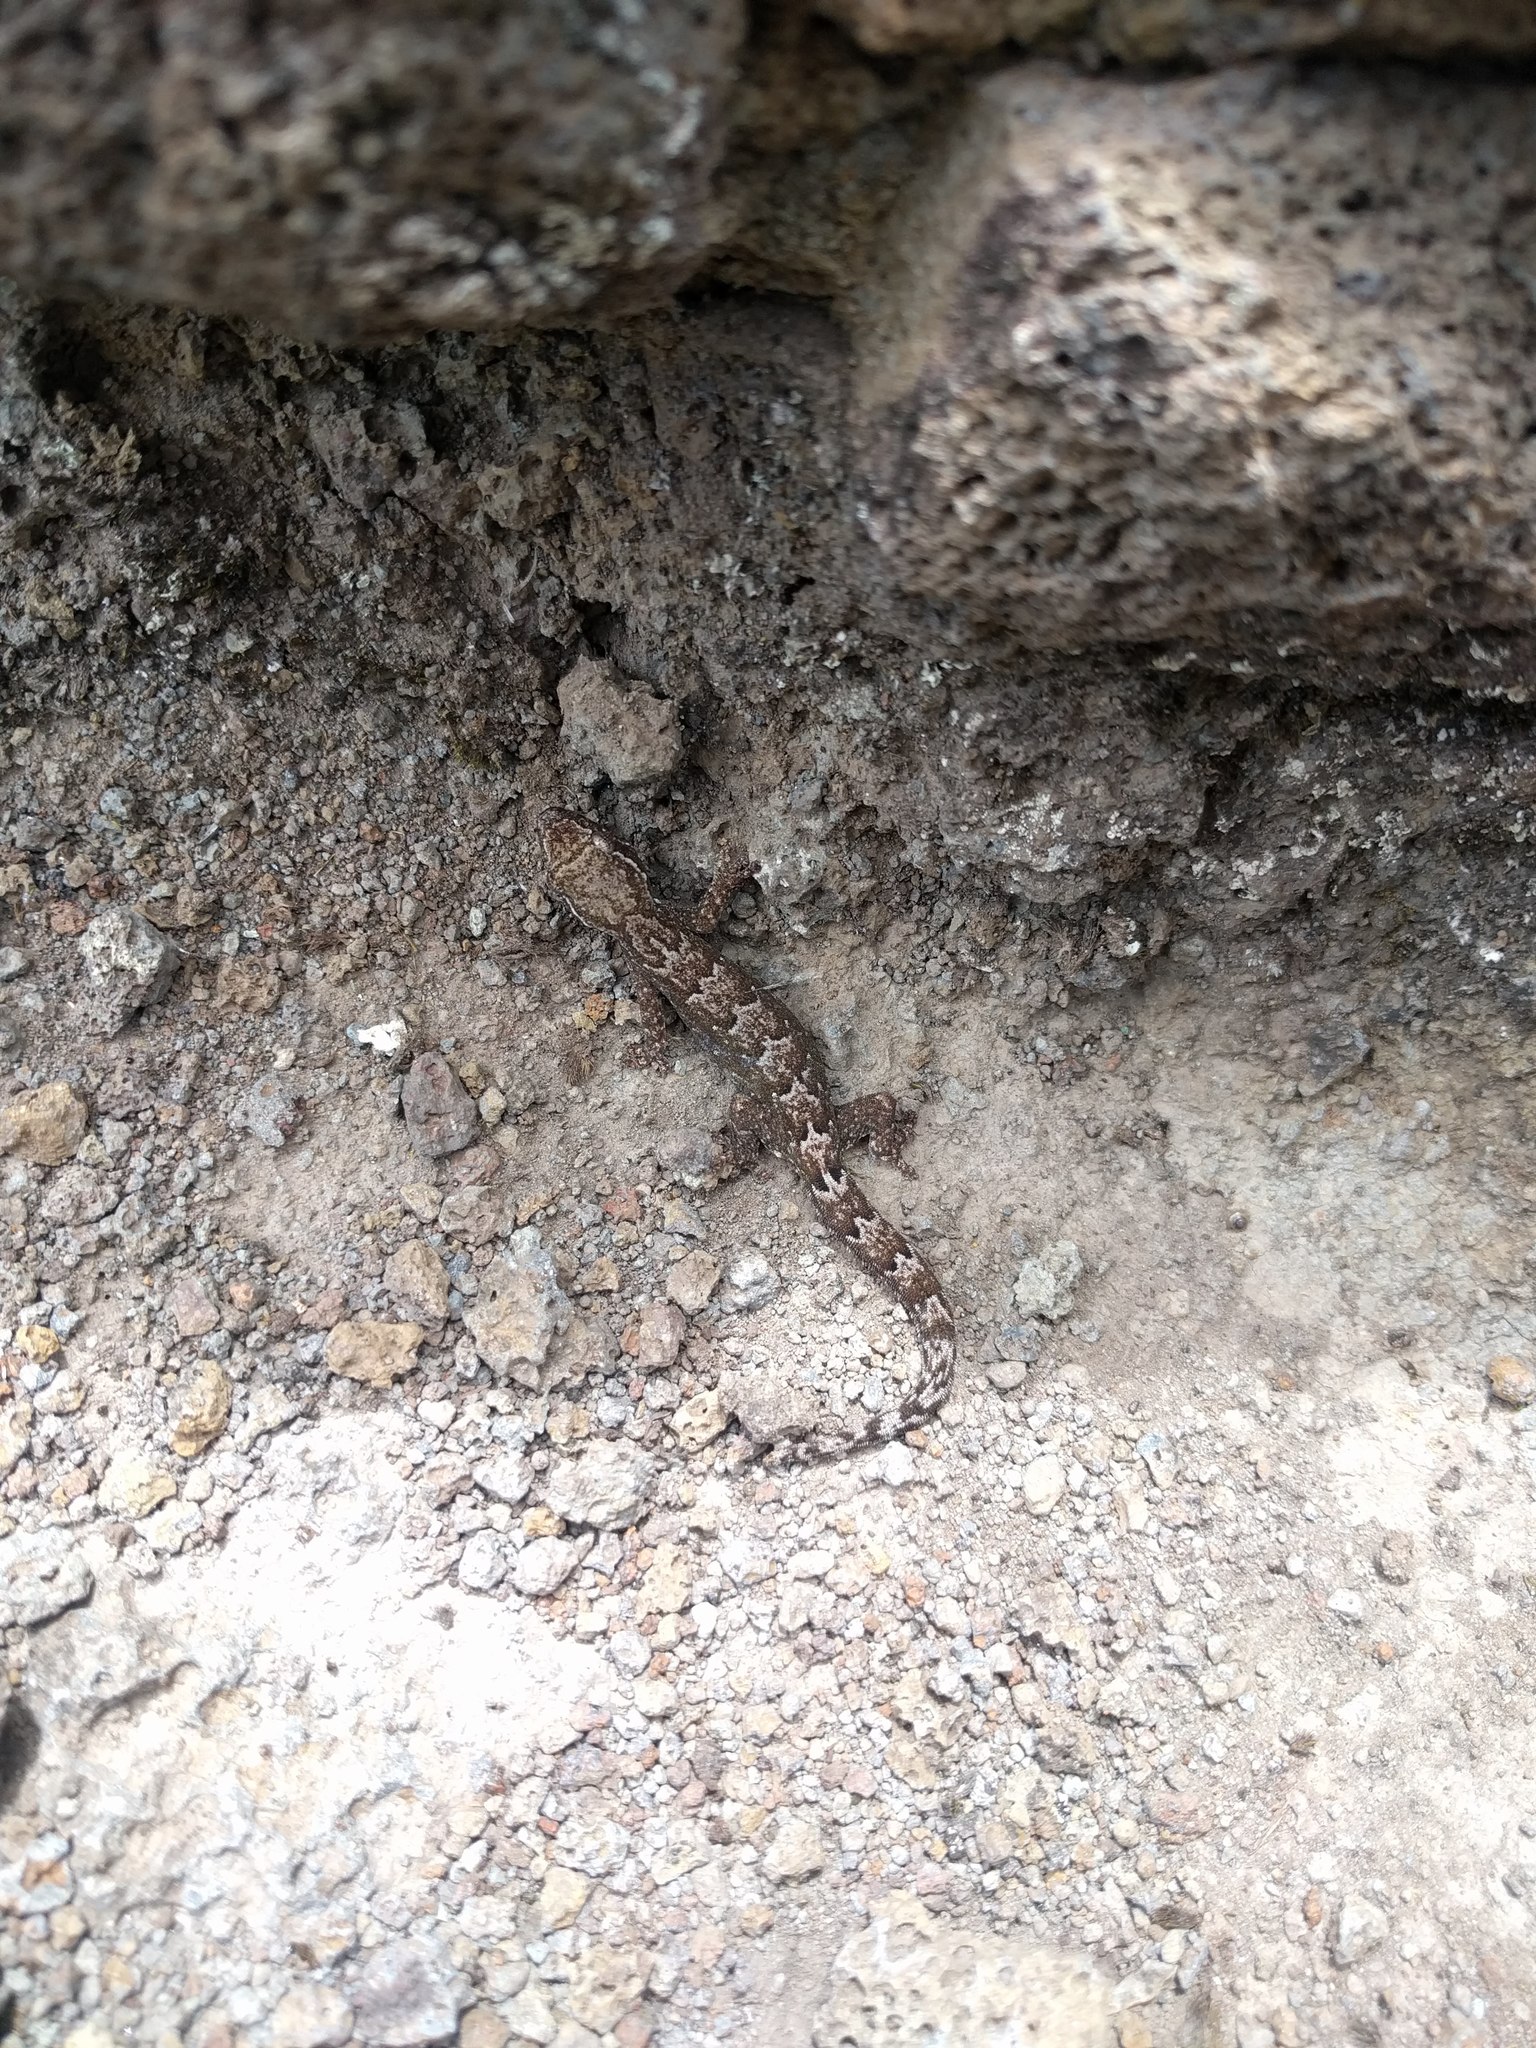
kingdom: Animalia
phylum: Chordata
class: Squamata
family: Gekkonidae
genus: Lepidodactylus
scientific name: Lepidodactylus lugubris
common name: Mourning gecko
